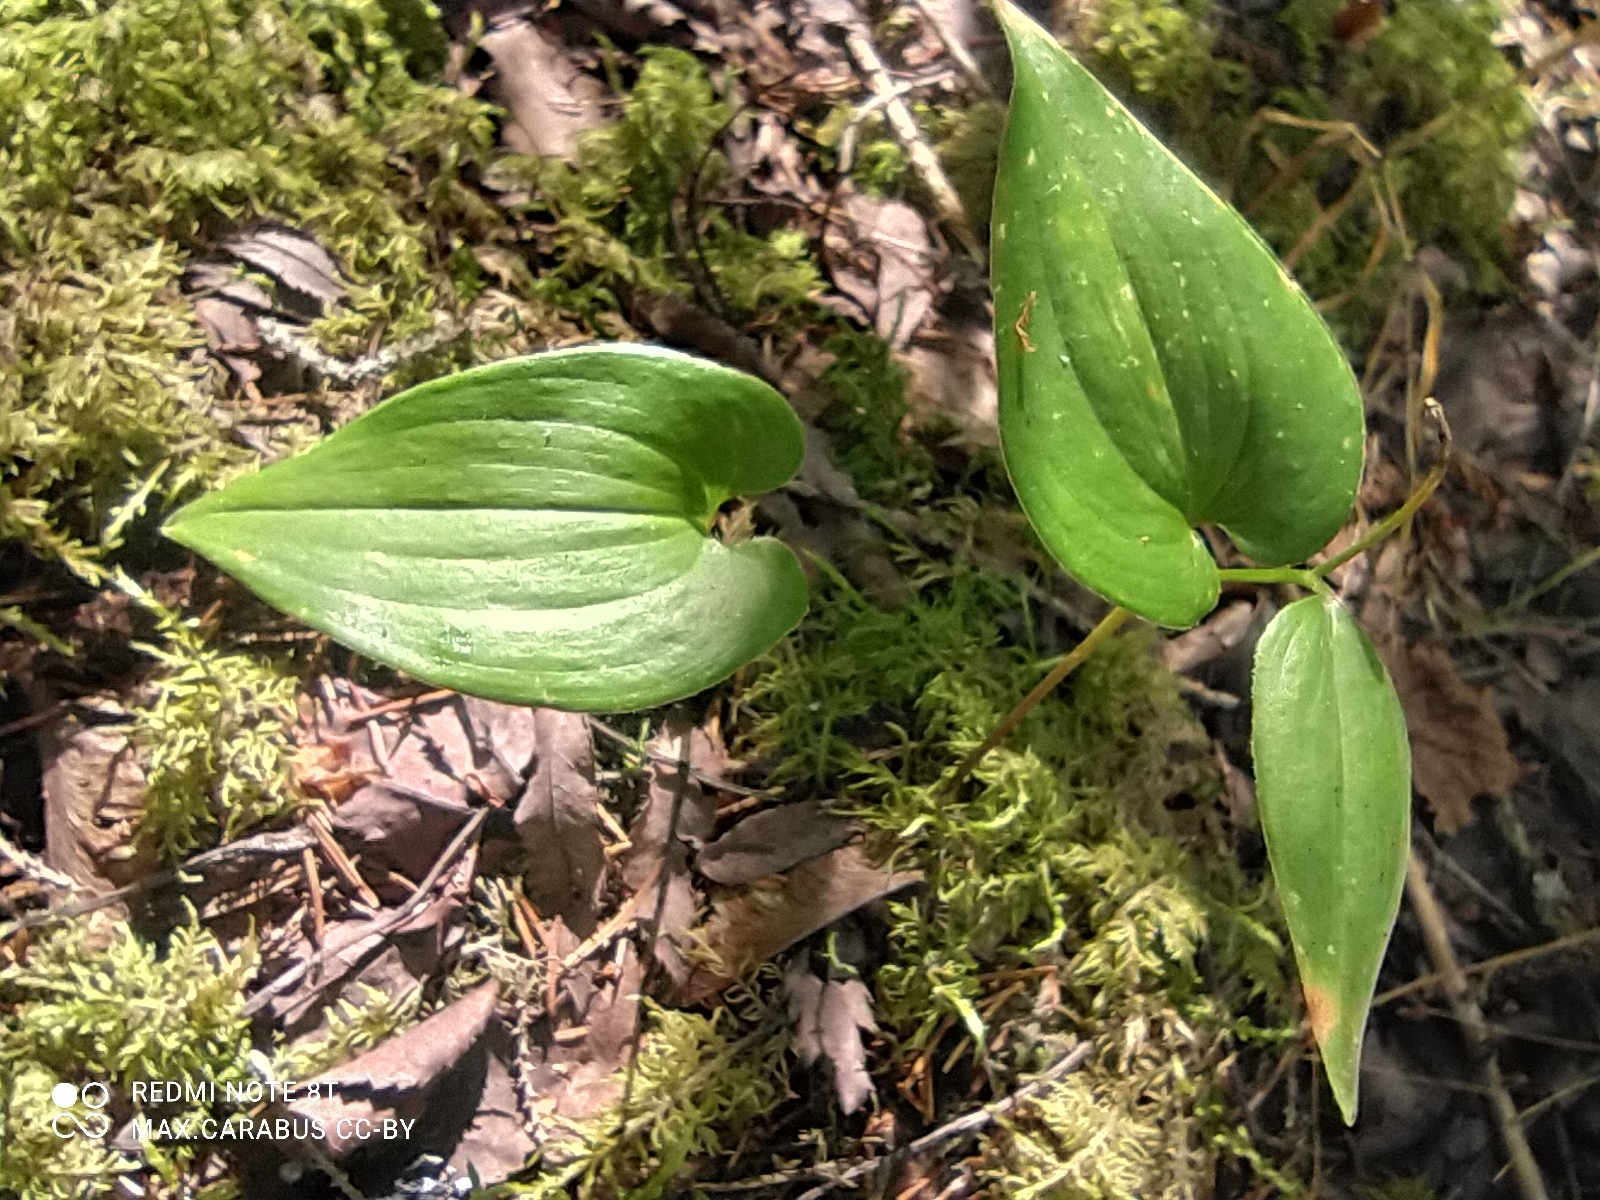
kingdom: Plantae
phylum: Tracheophyta
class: Liliopsida
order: Asparagales
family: Asparagaceae
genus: Maianthemum
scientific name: Maianthemum bifolium
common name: May lily
